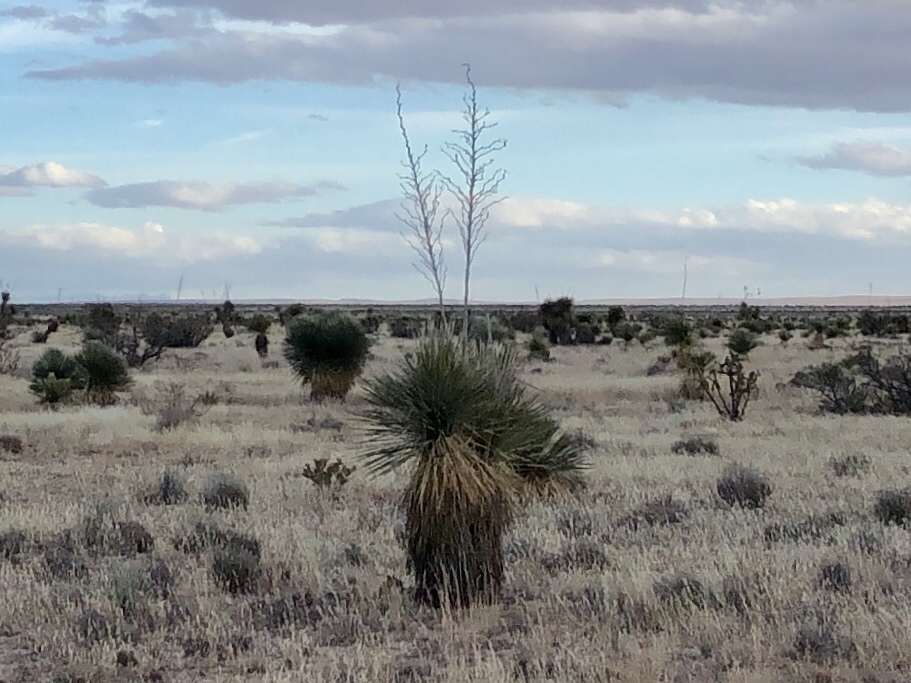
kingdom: Plantae
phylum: Tracheophyta
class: Liliopsida
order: Asparagales
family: Asparagaceae
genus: Yucca
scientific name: Yucca elata
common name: Palmella
